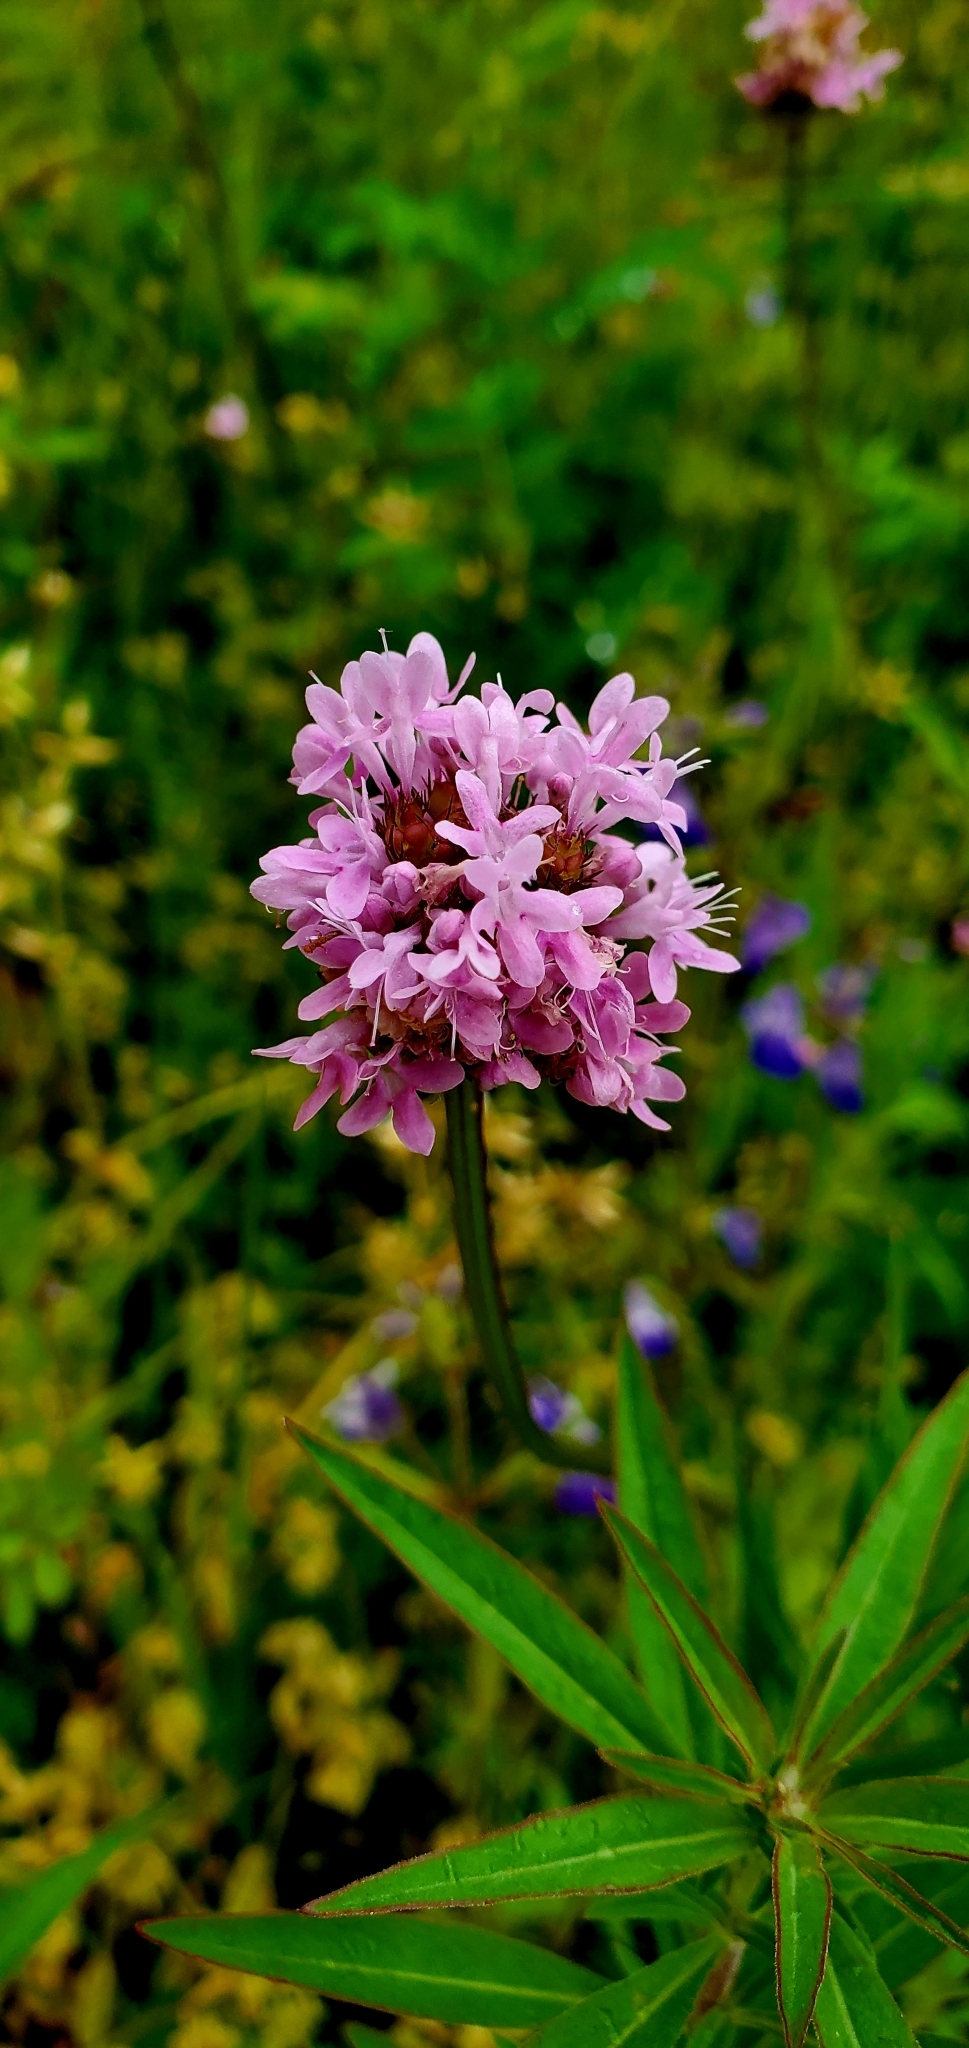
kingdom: Plantae
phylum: Tracheophyta
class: Magnoliopsida
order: Dipsacales
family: Caprifoliaceae
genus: Plectritis
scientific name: Plectritis brachystemon
